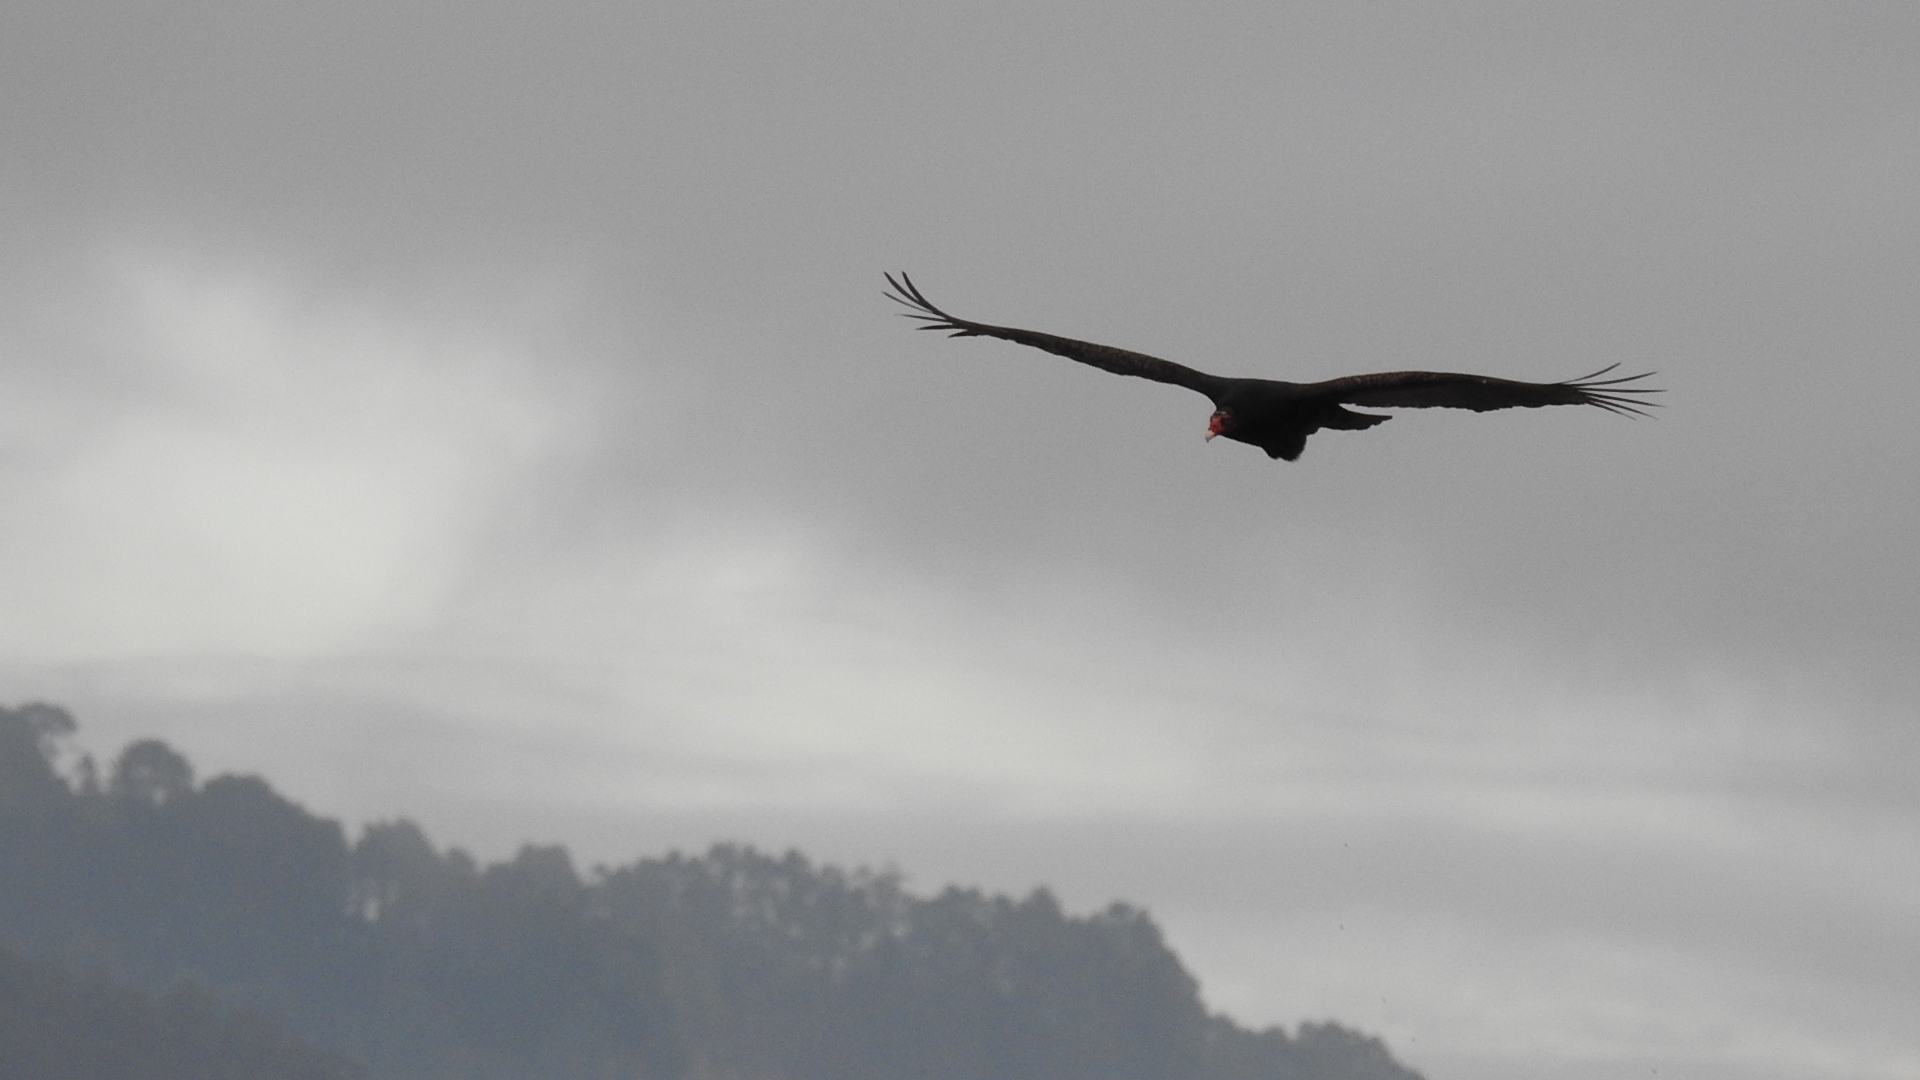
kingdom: Animalia
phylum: Chordata
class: Aves
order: Accipitriformes
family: Cathartidae
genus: Cathartes
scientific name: Cathartes aura
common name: Turkey vulture
